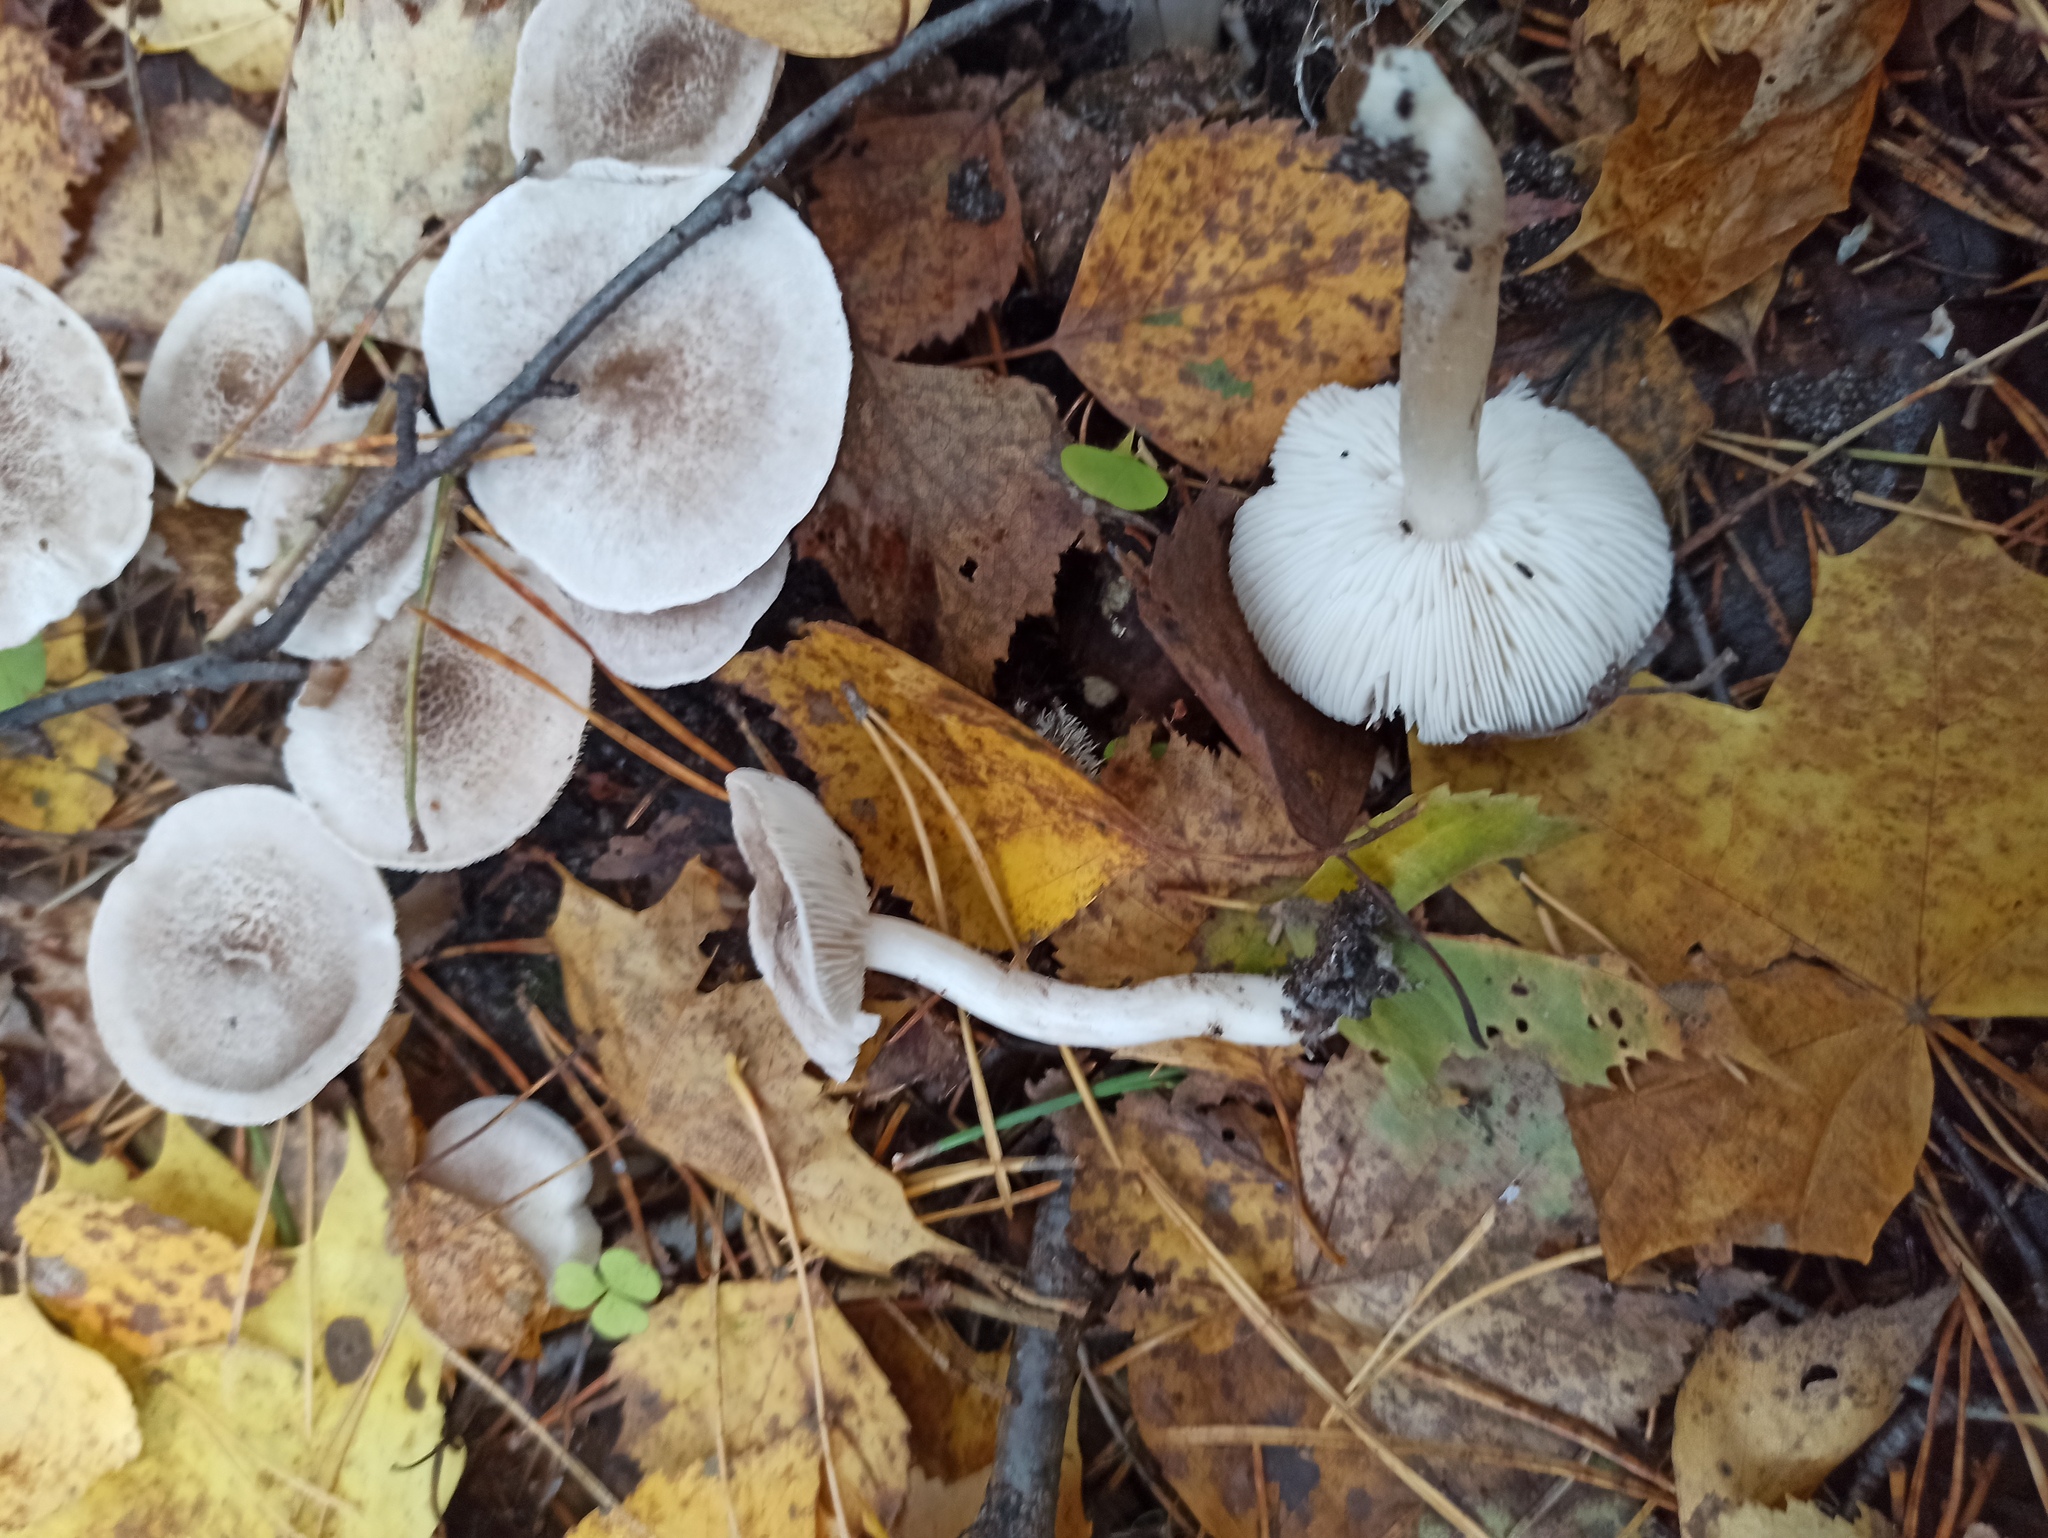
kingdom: Fungi
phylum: Basidiomycota
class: Agaricomycetes
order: Agaricales
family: Tricholomataceae
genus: Clitocybe
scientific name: Clitocybe nebularis
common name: Clouded agaric
